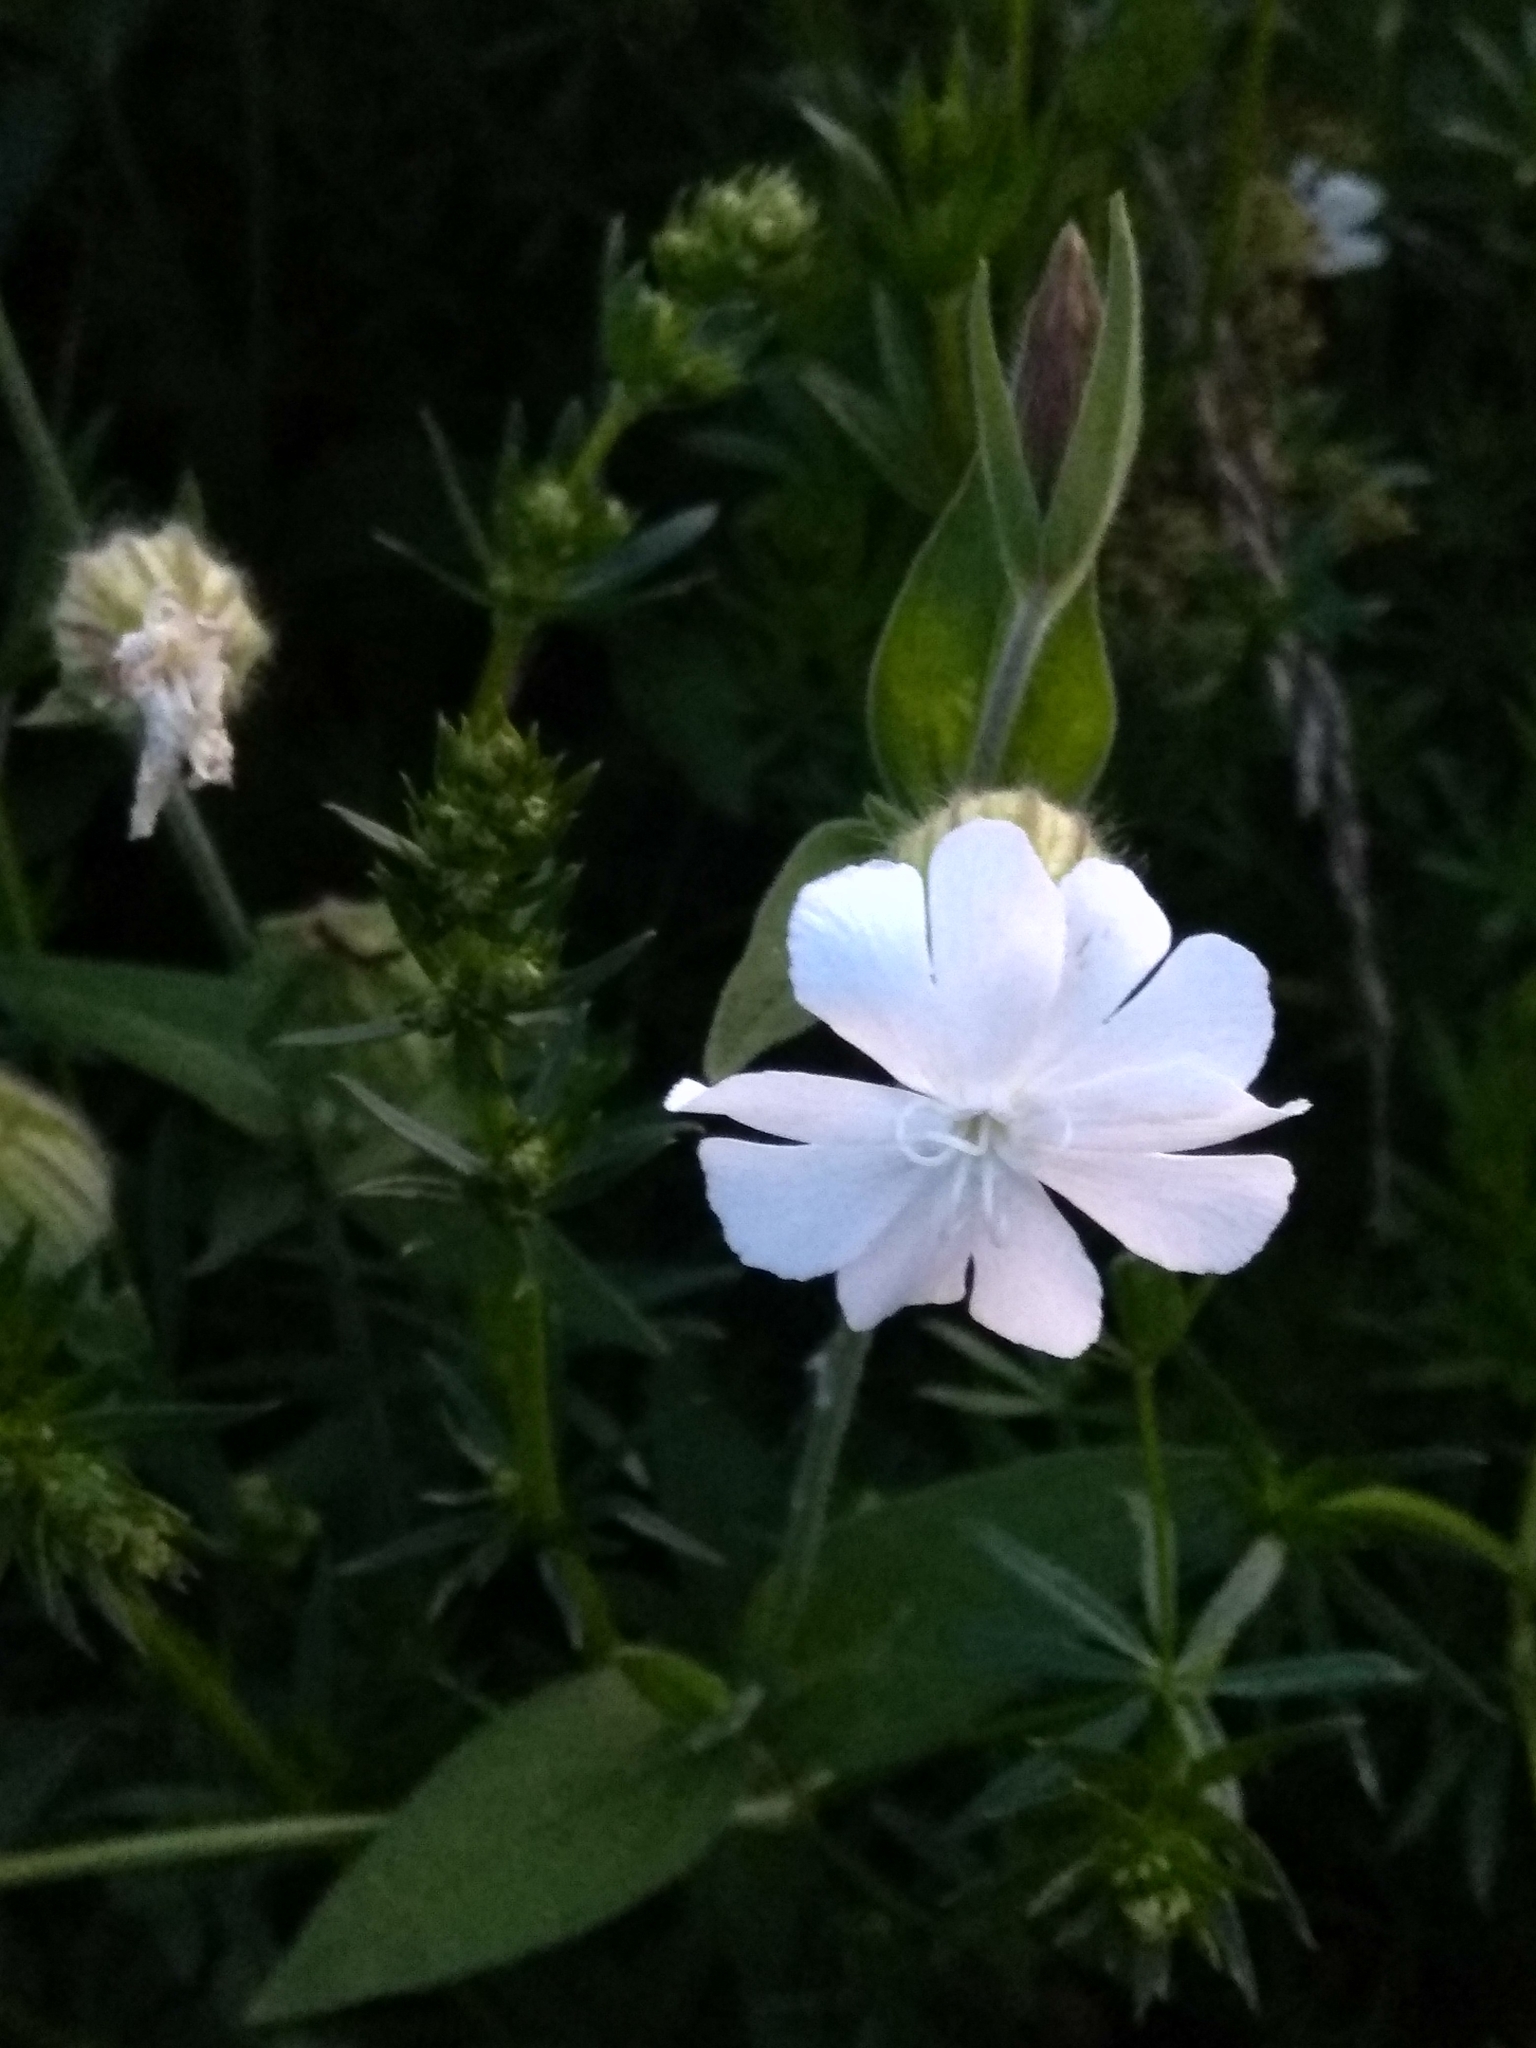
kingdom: Plantae
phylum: Tracheophyta
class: Magnoliopsida
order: Caryophyllales
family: Caryophyllaceae
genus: Silene
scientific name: Silene latifolia
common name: White campion
